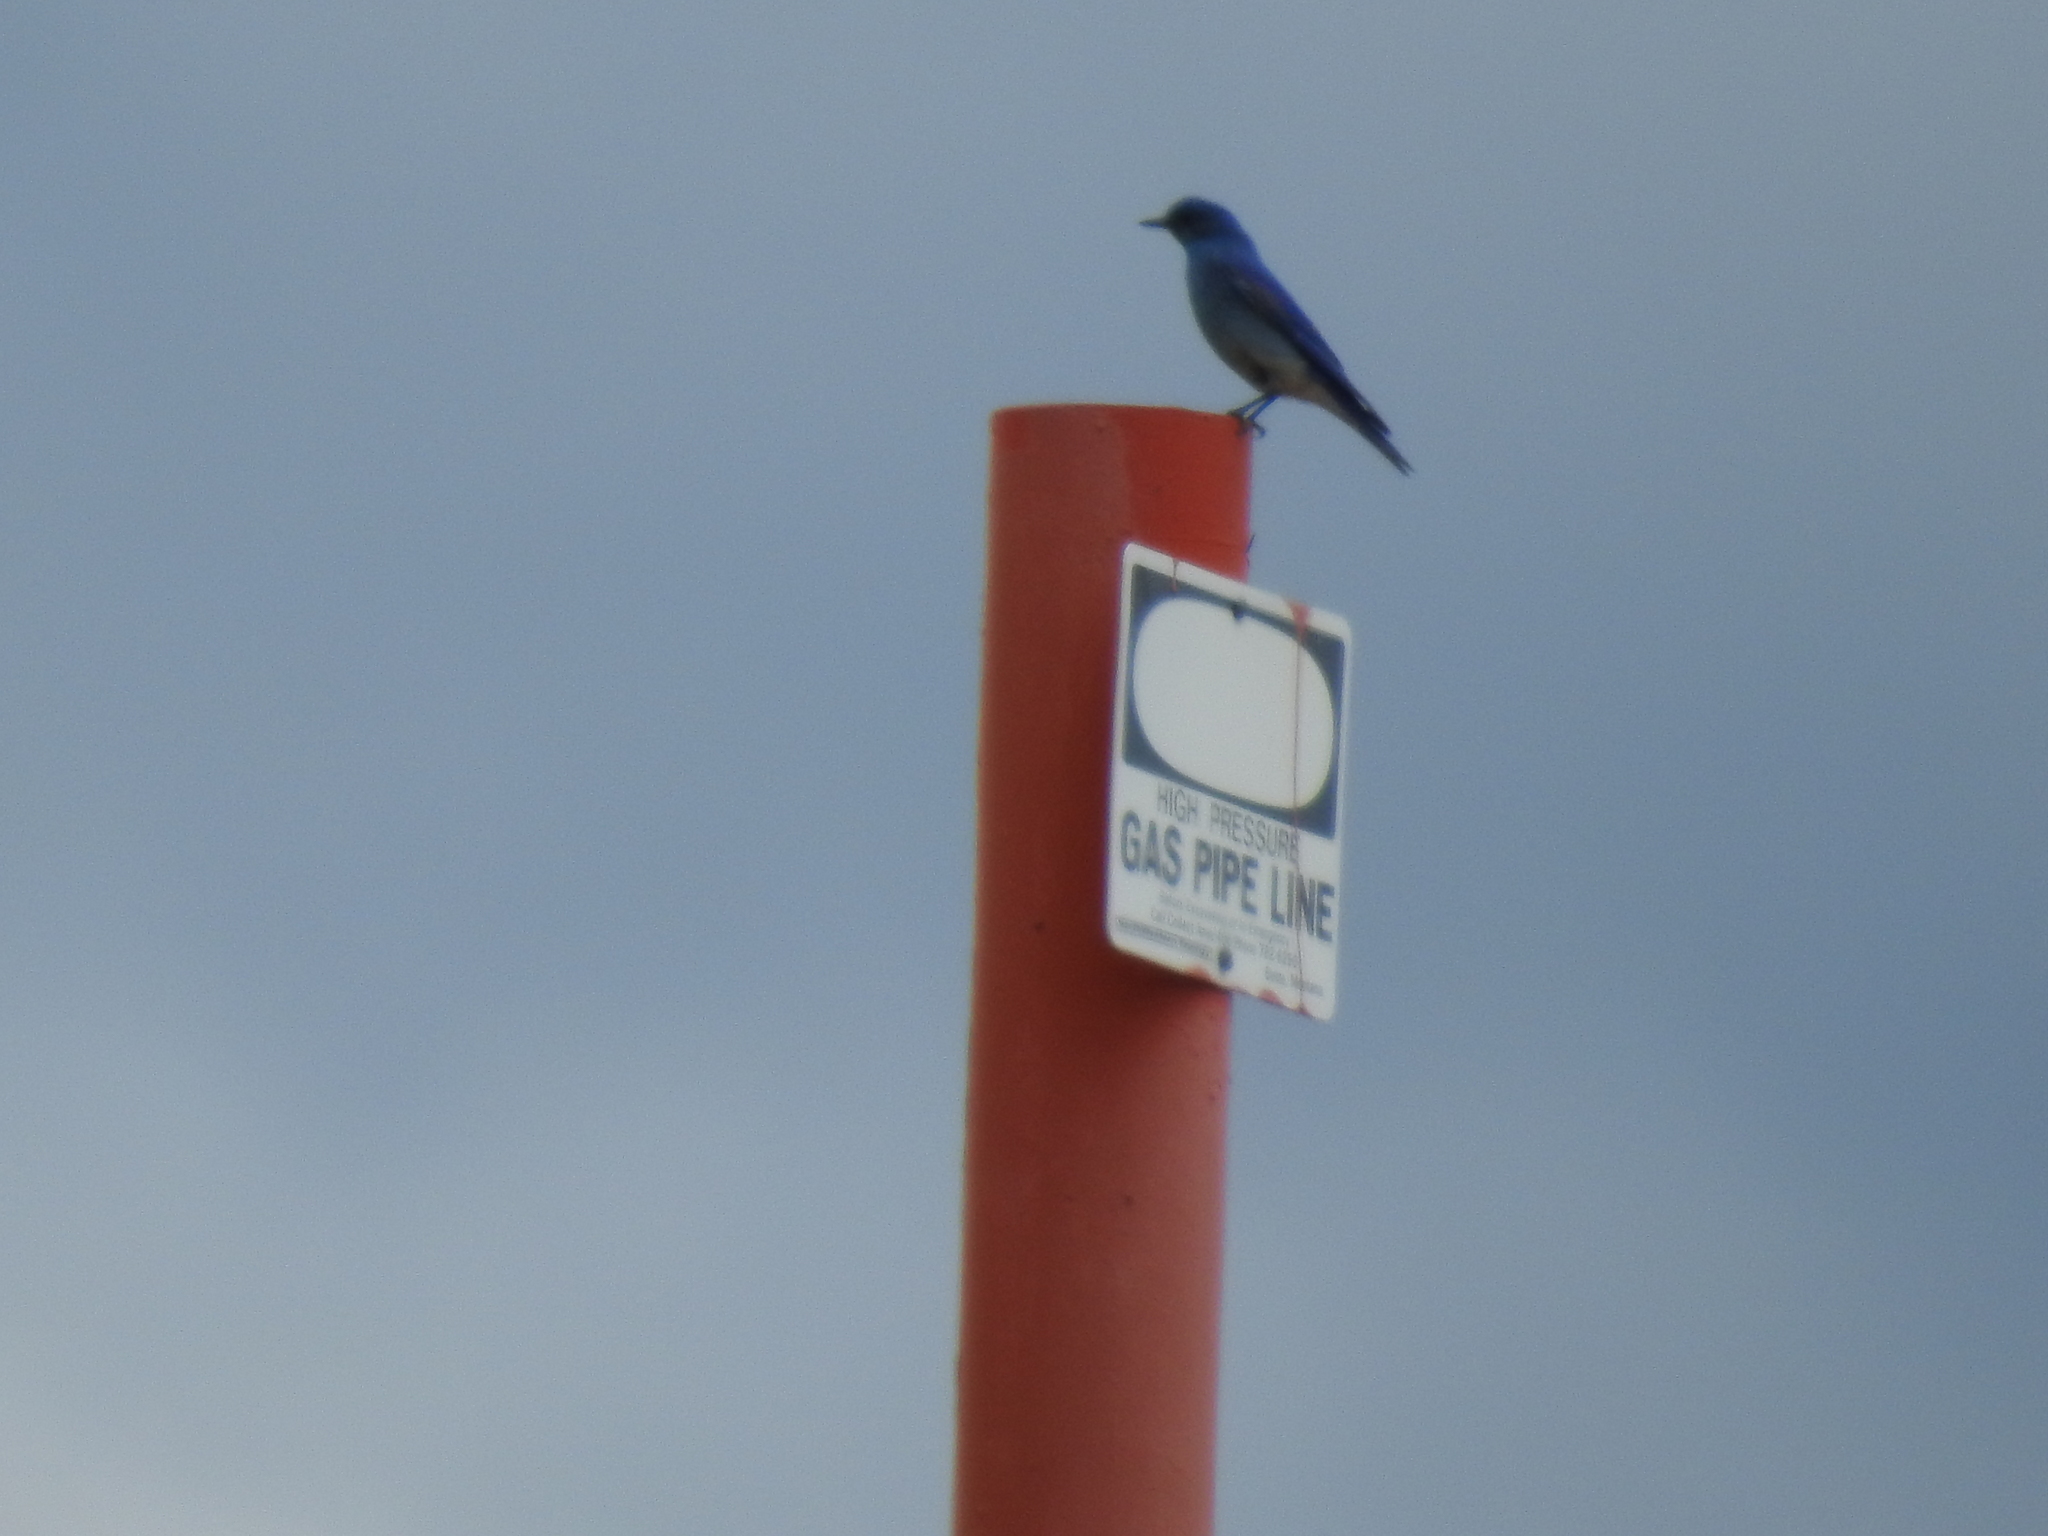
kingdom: Animalia
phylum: Chordata
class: Aves
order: Passeriformes
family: Turdidae
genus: Sialia
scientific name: Sialia currucoides
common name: Mountain bluebird
